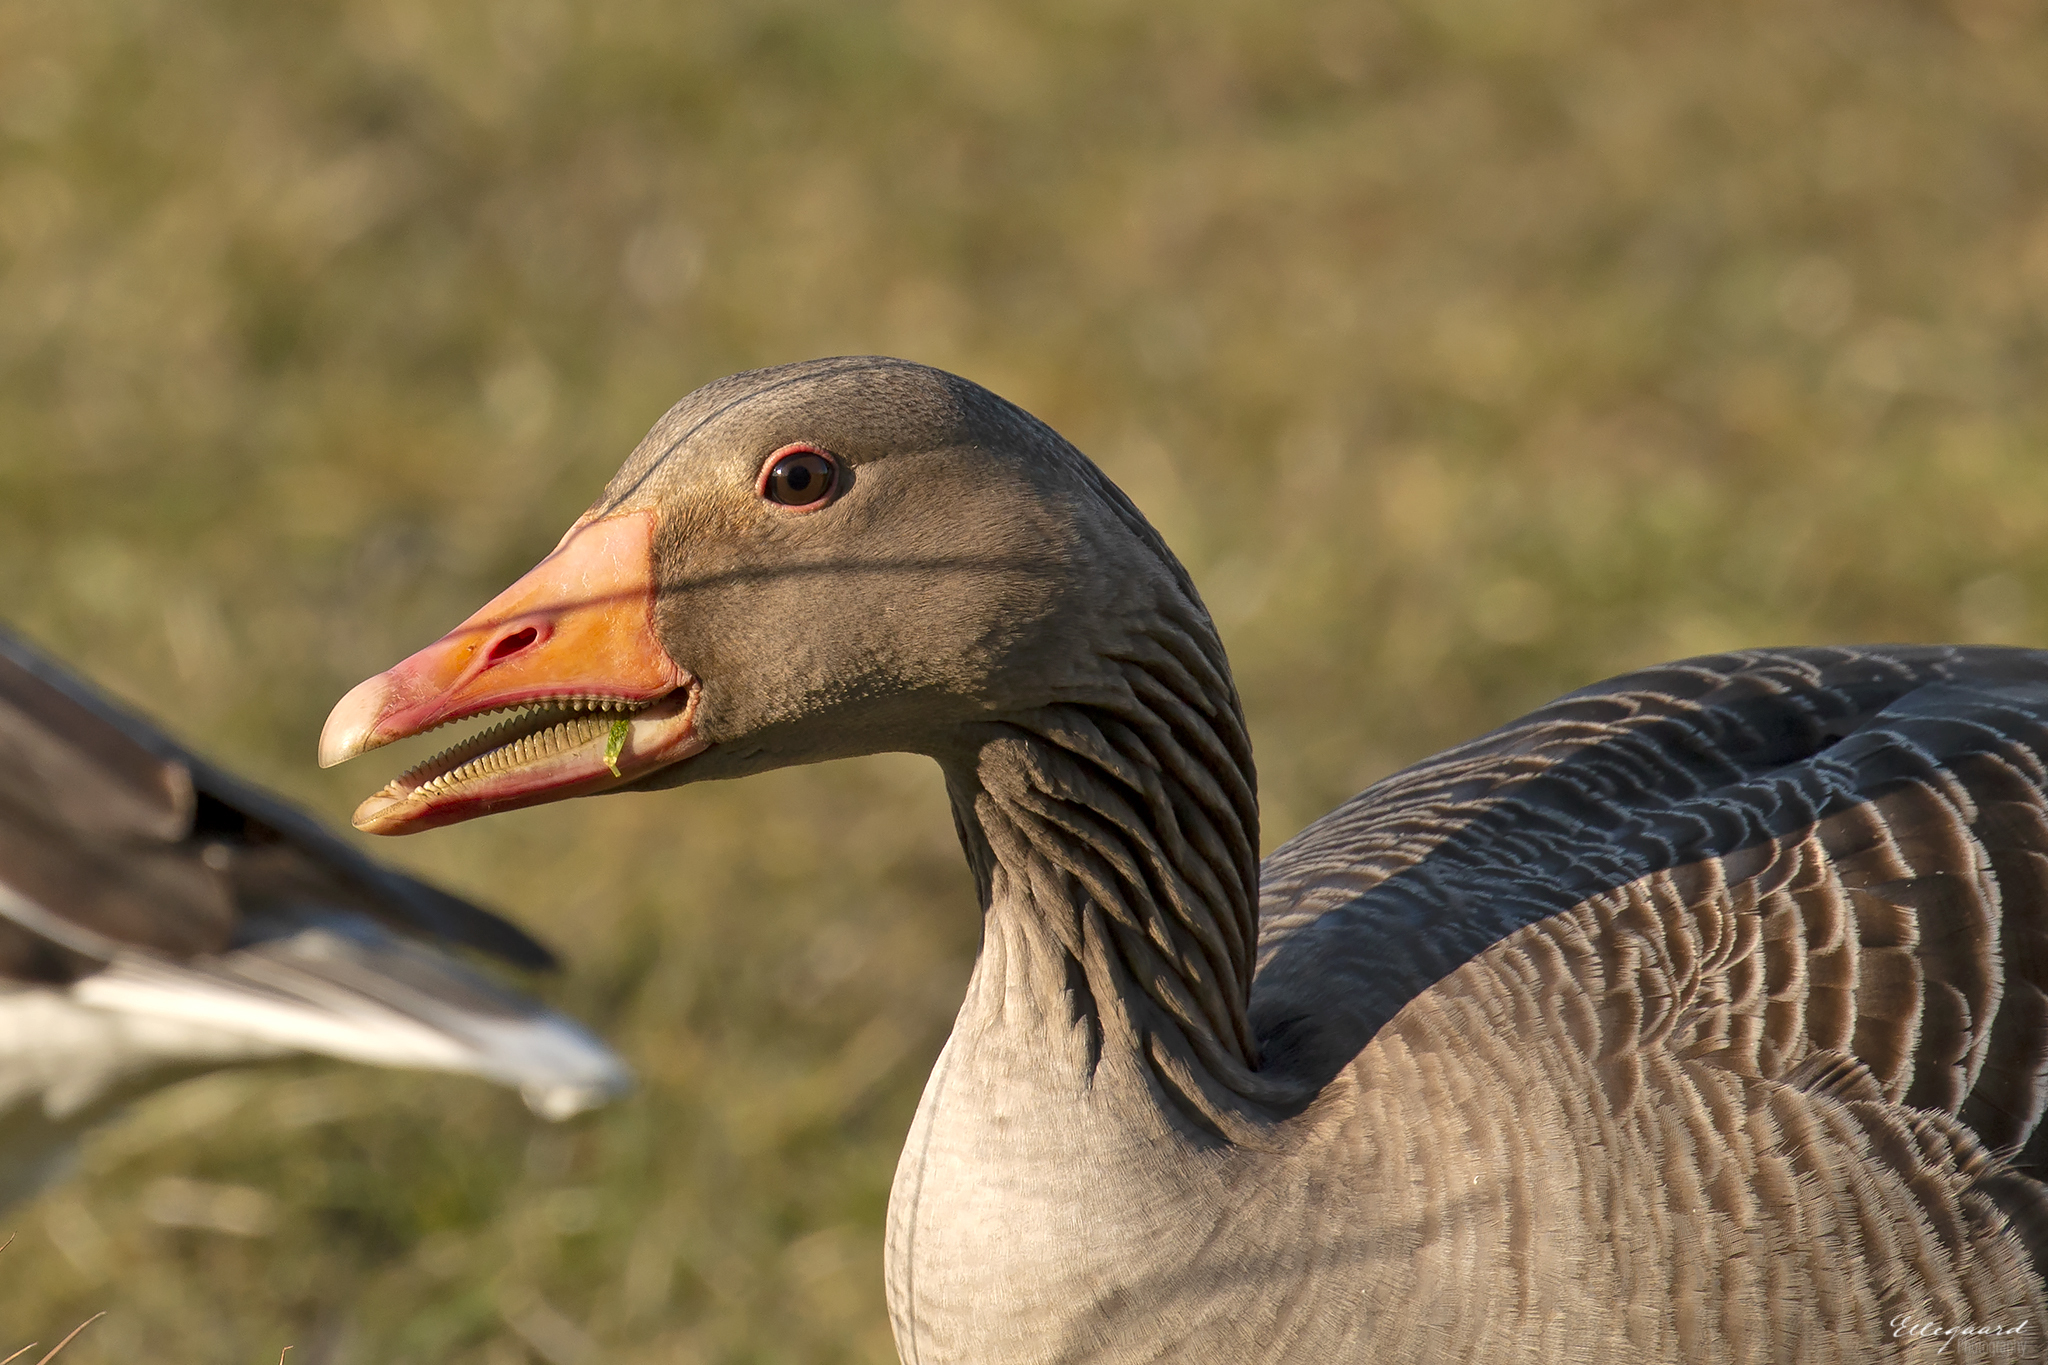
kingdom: Animalia
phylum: Chordata
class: Aves
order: Anseriformes
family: Anatidae
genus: Anser
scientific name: Anser anser
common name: Greylag goose
